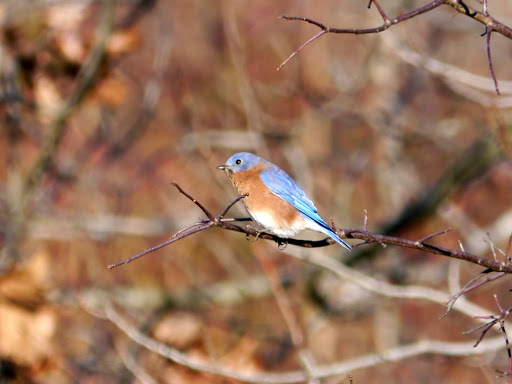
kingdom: Animalia
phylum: Chordata
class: Aves
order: Passeriformes
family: Turdidae
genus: Sialia
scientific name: Sialia sialis
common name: Eastern bluebird
